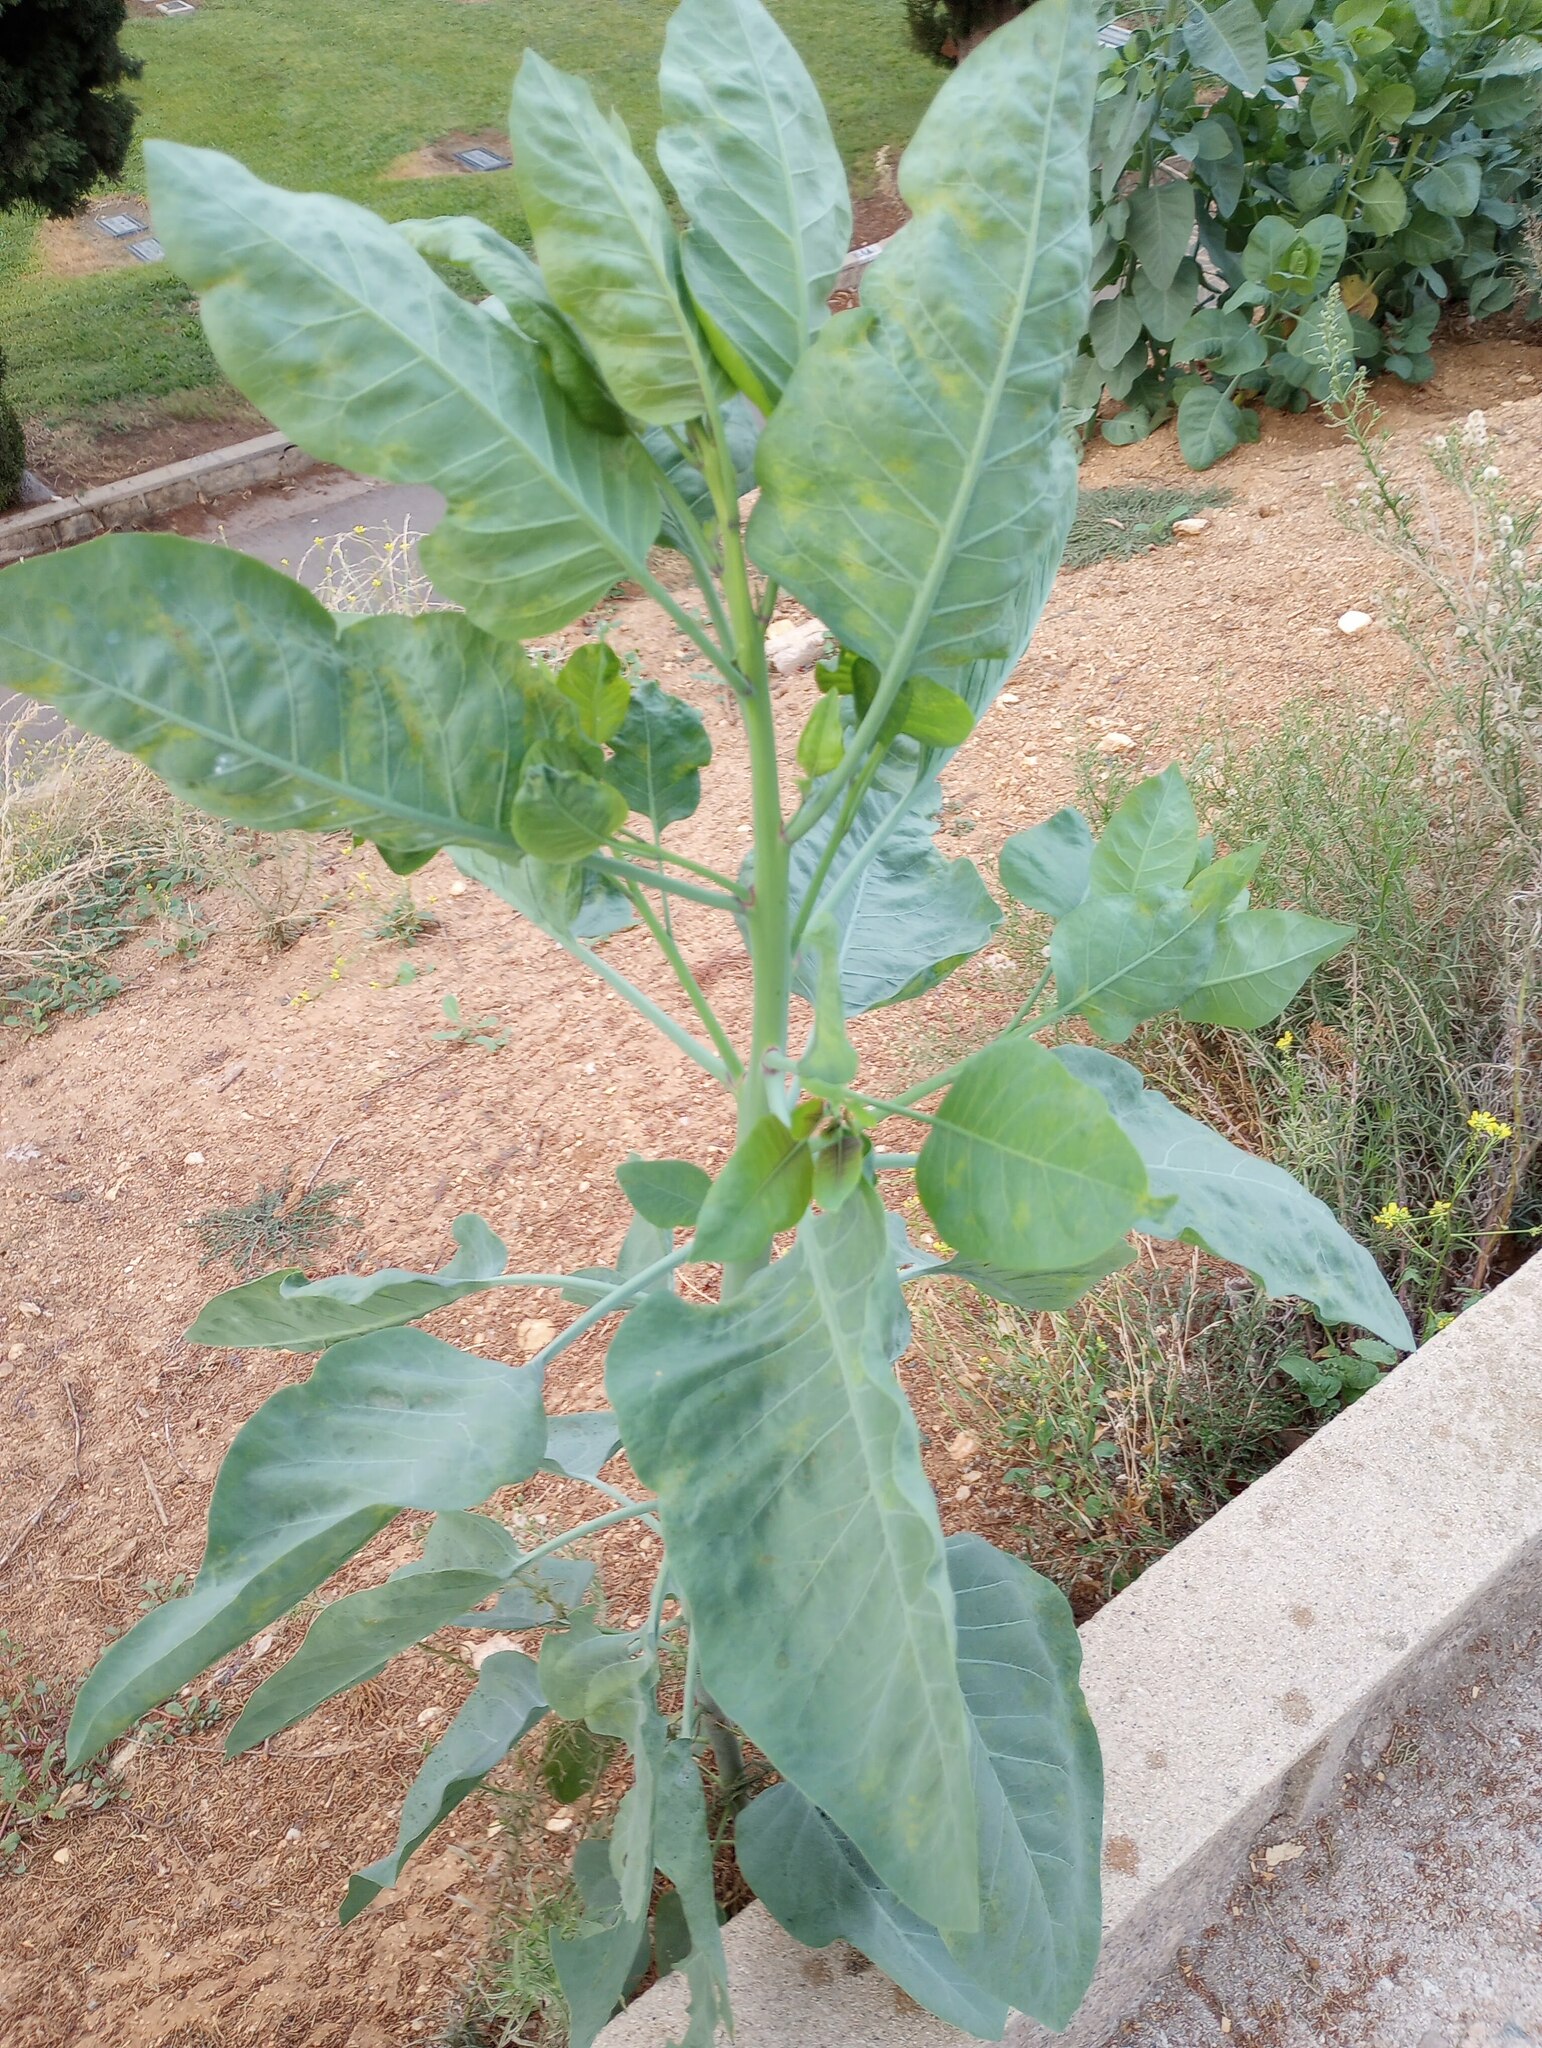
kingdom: Plantae
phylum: Tracheophyta
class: Magnoliopsida
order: Solanales
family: Solanaceae
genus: Nicotiana
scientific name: Nicotiana glauca
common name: Tree tobacco
